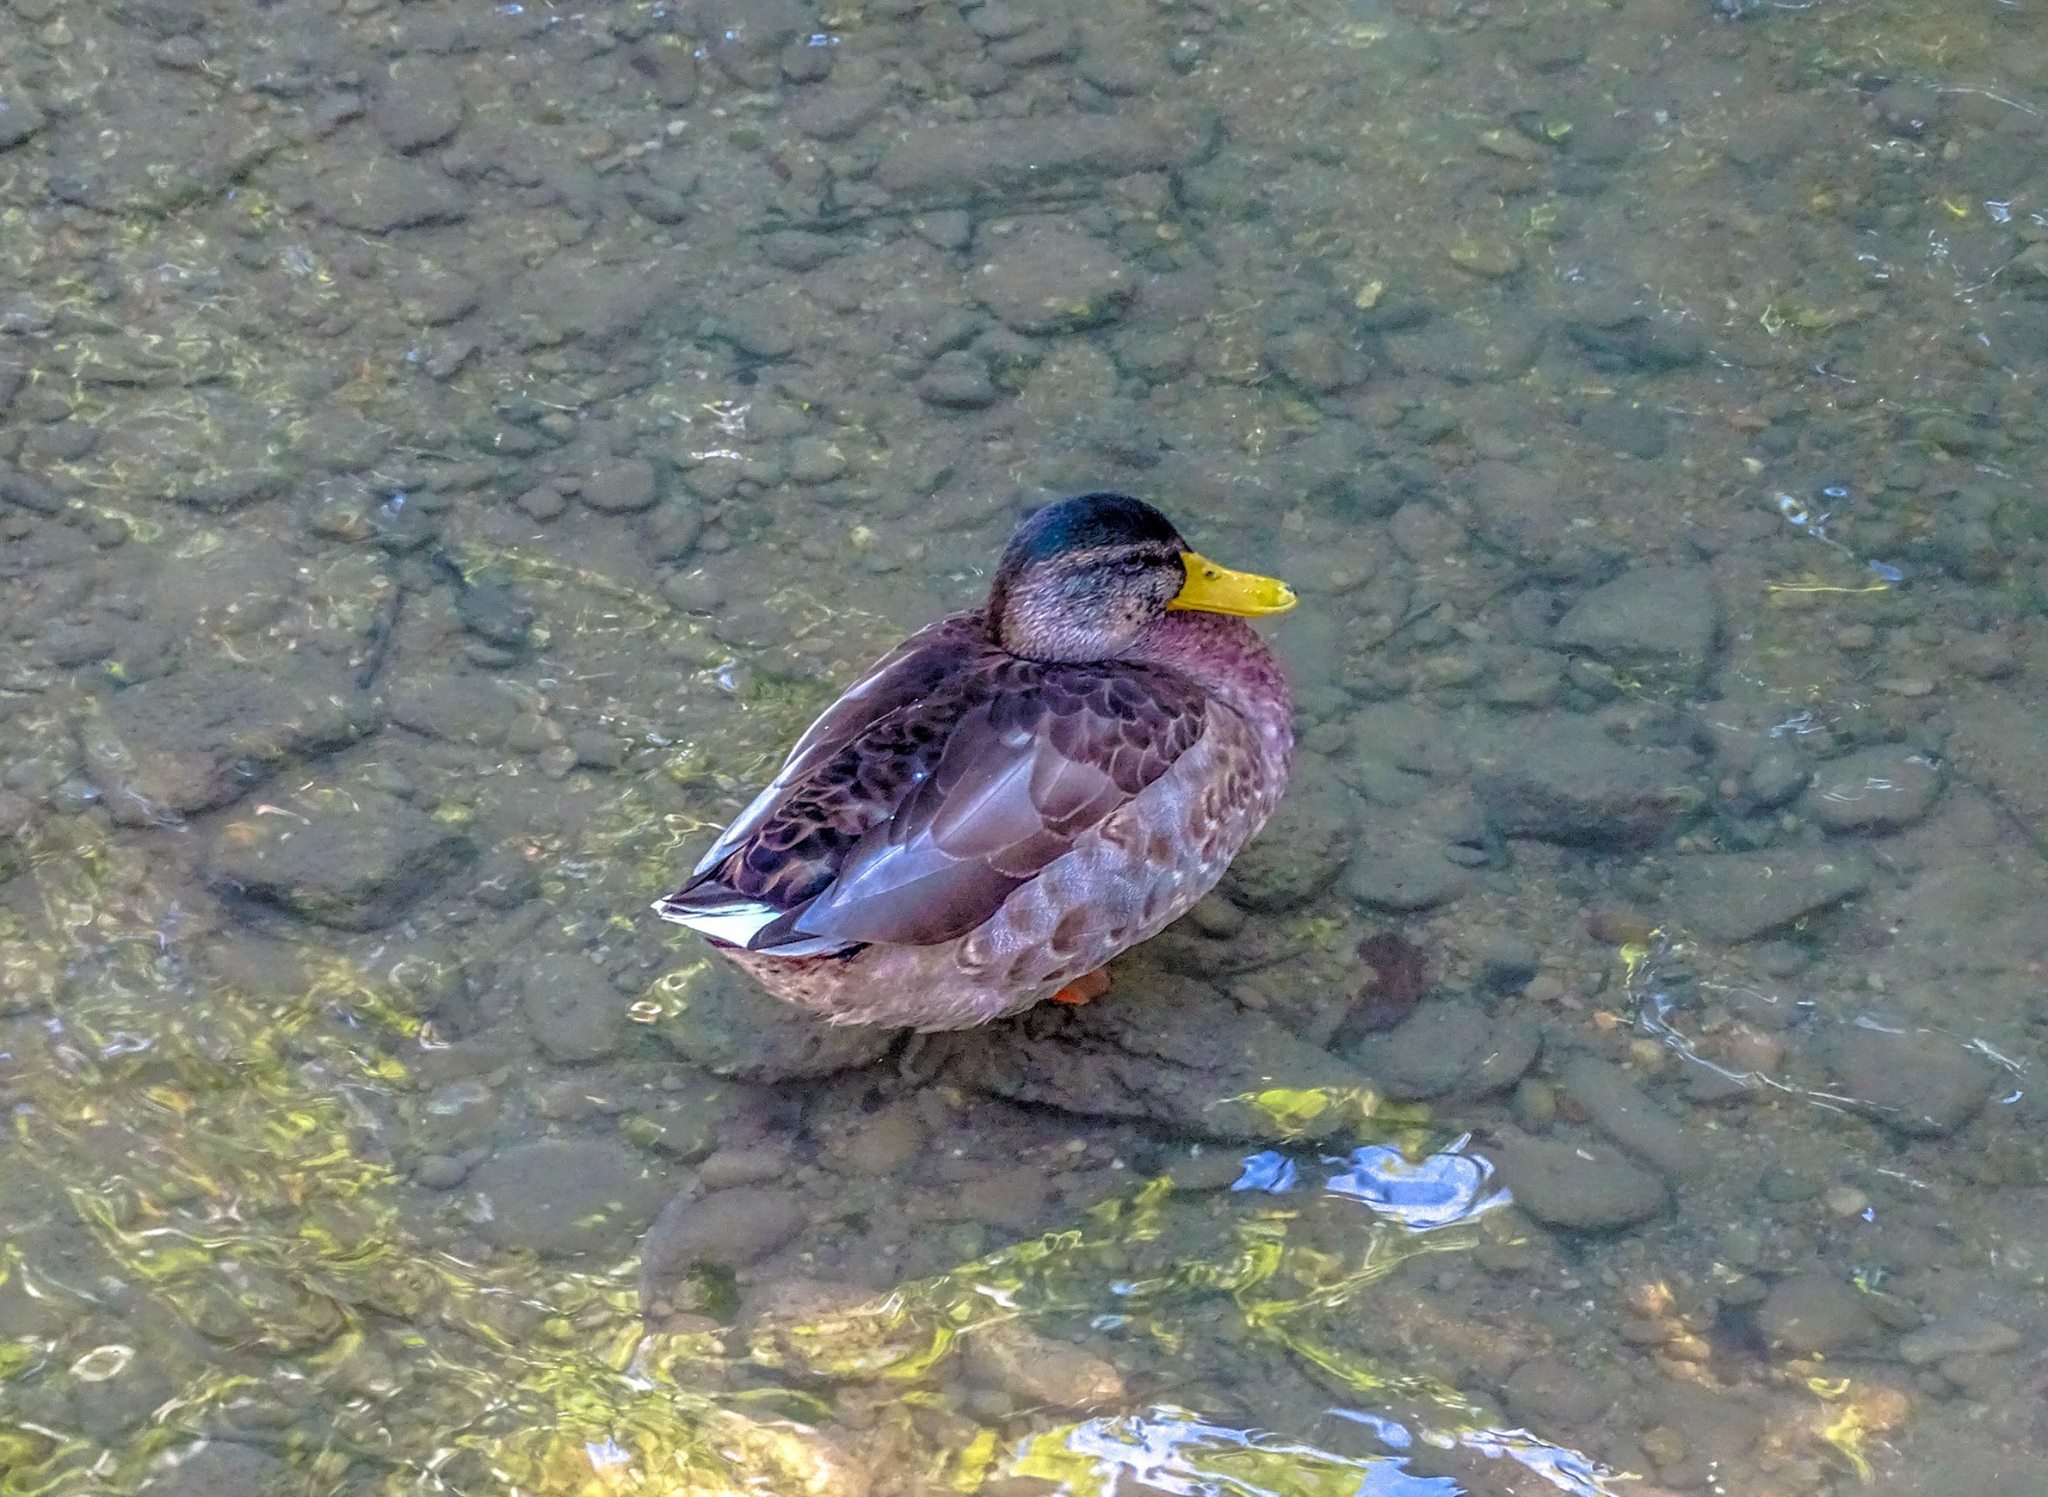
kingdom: Animalia
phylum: Chordata
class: Aves
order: Anseriformes
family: Anatidae
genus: Anas
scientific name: Anas platyrhynchos
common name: Mallard
